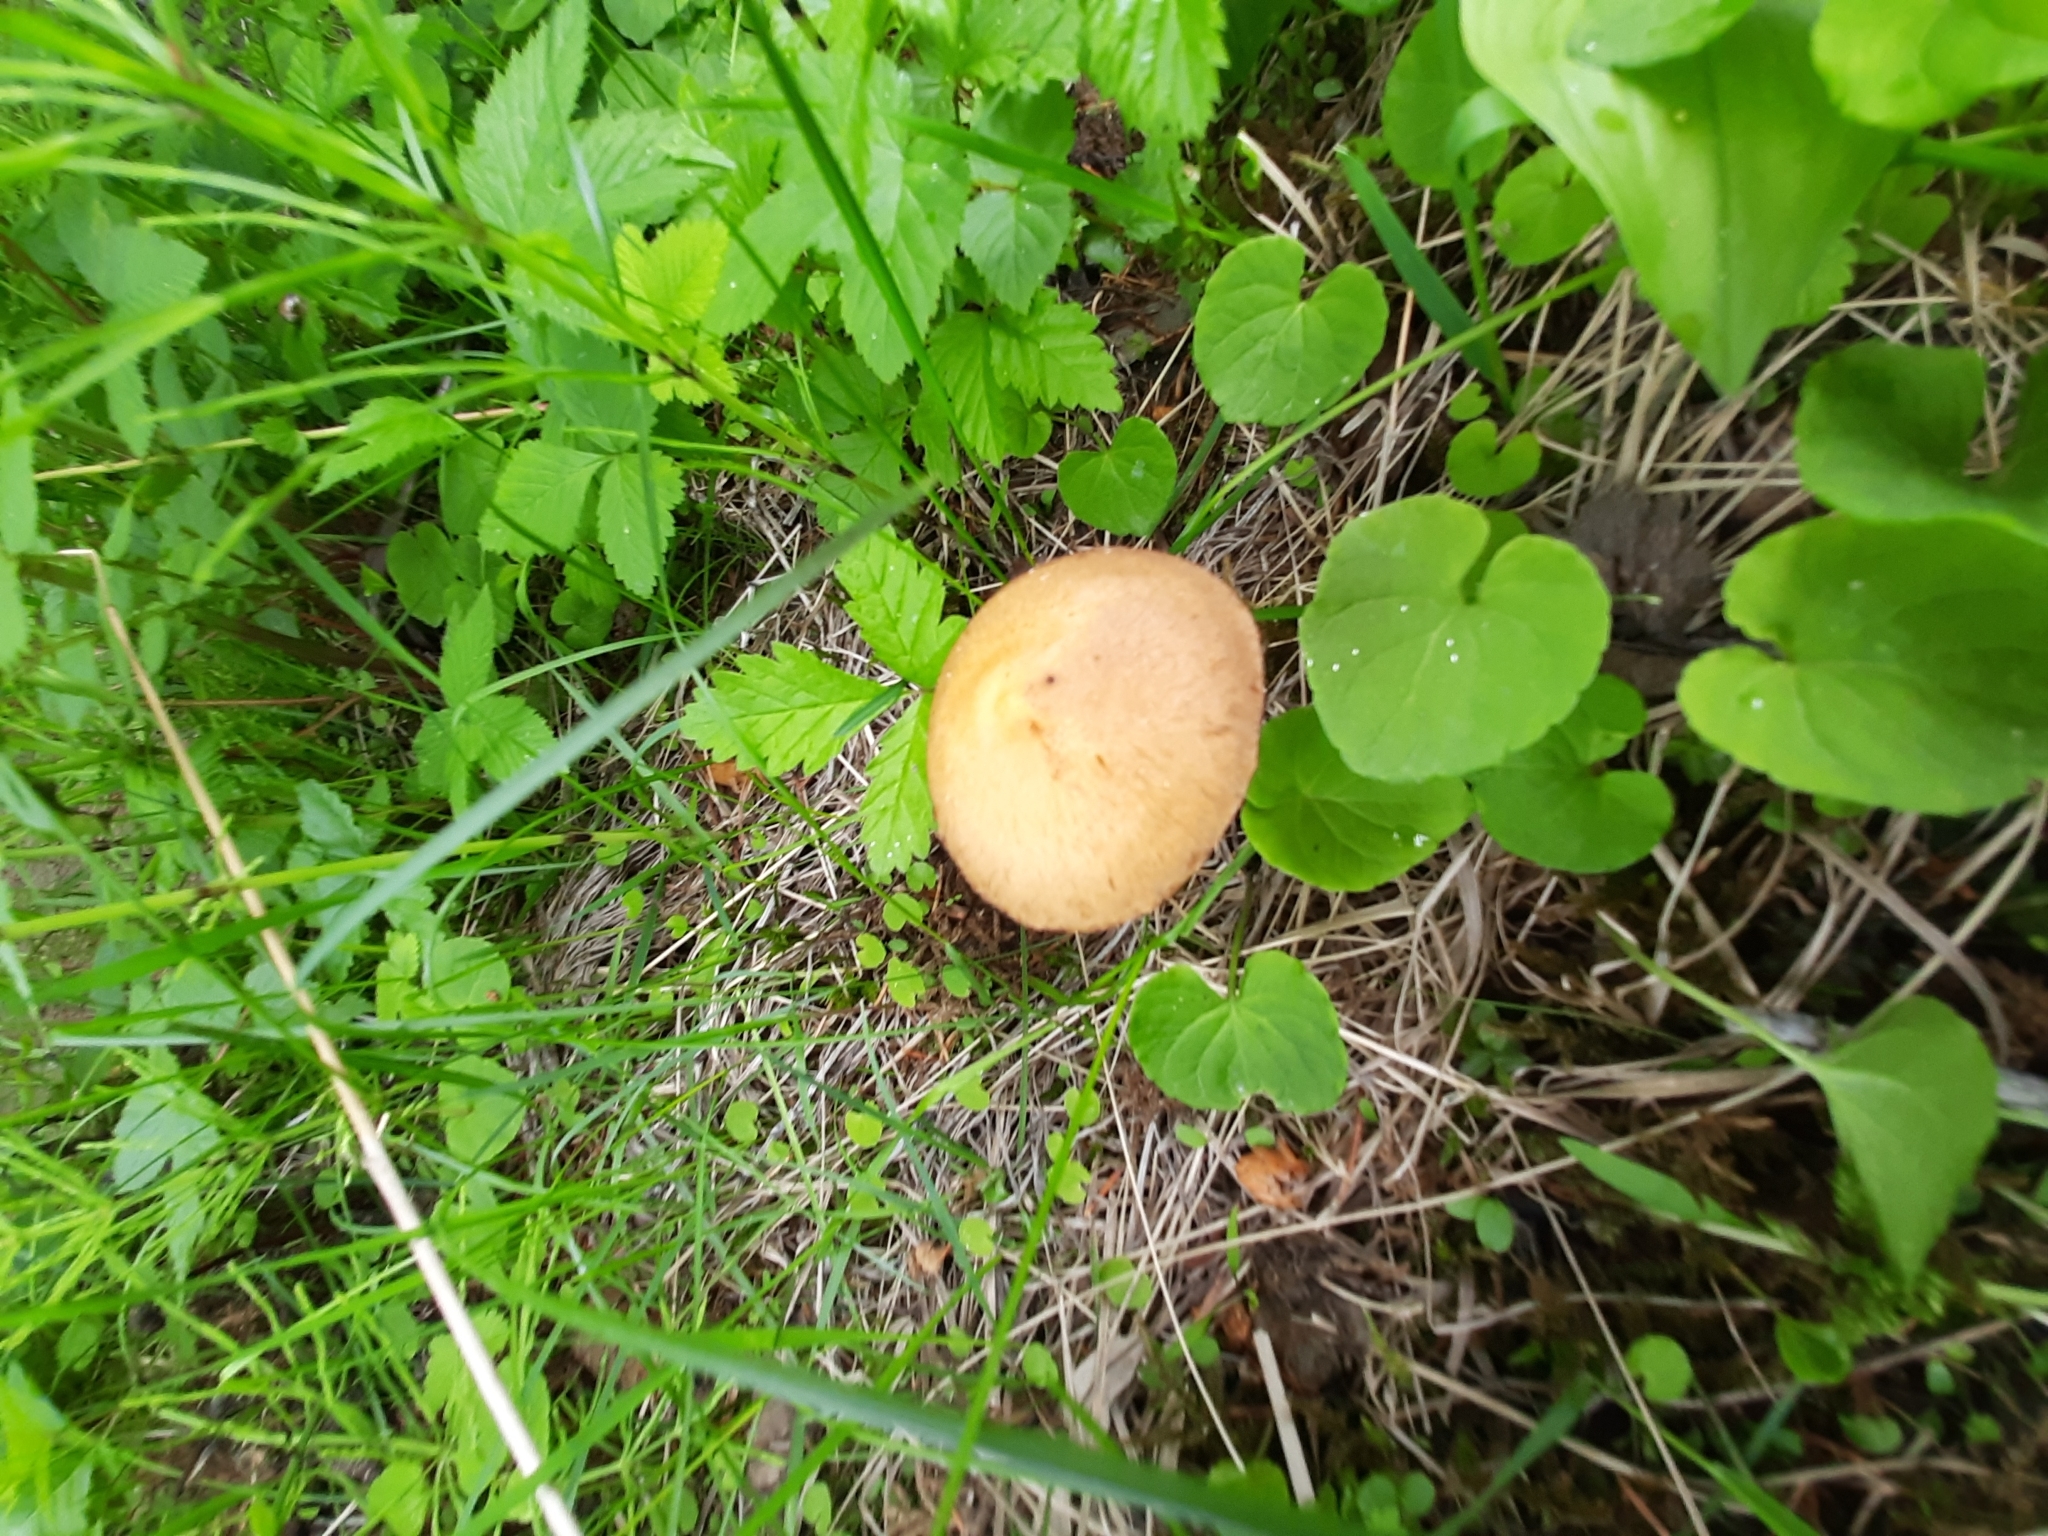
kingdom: Fungi
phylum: Basidiomycota
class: Agaricomycetes
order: Agaricales
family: Strophariaceae
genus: Leratiomyces
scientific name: Leratiomyces magnivelaris
